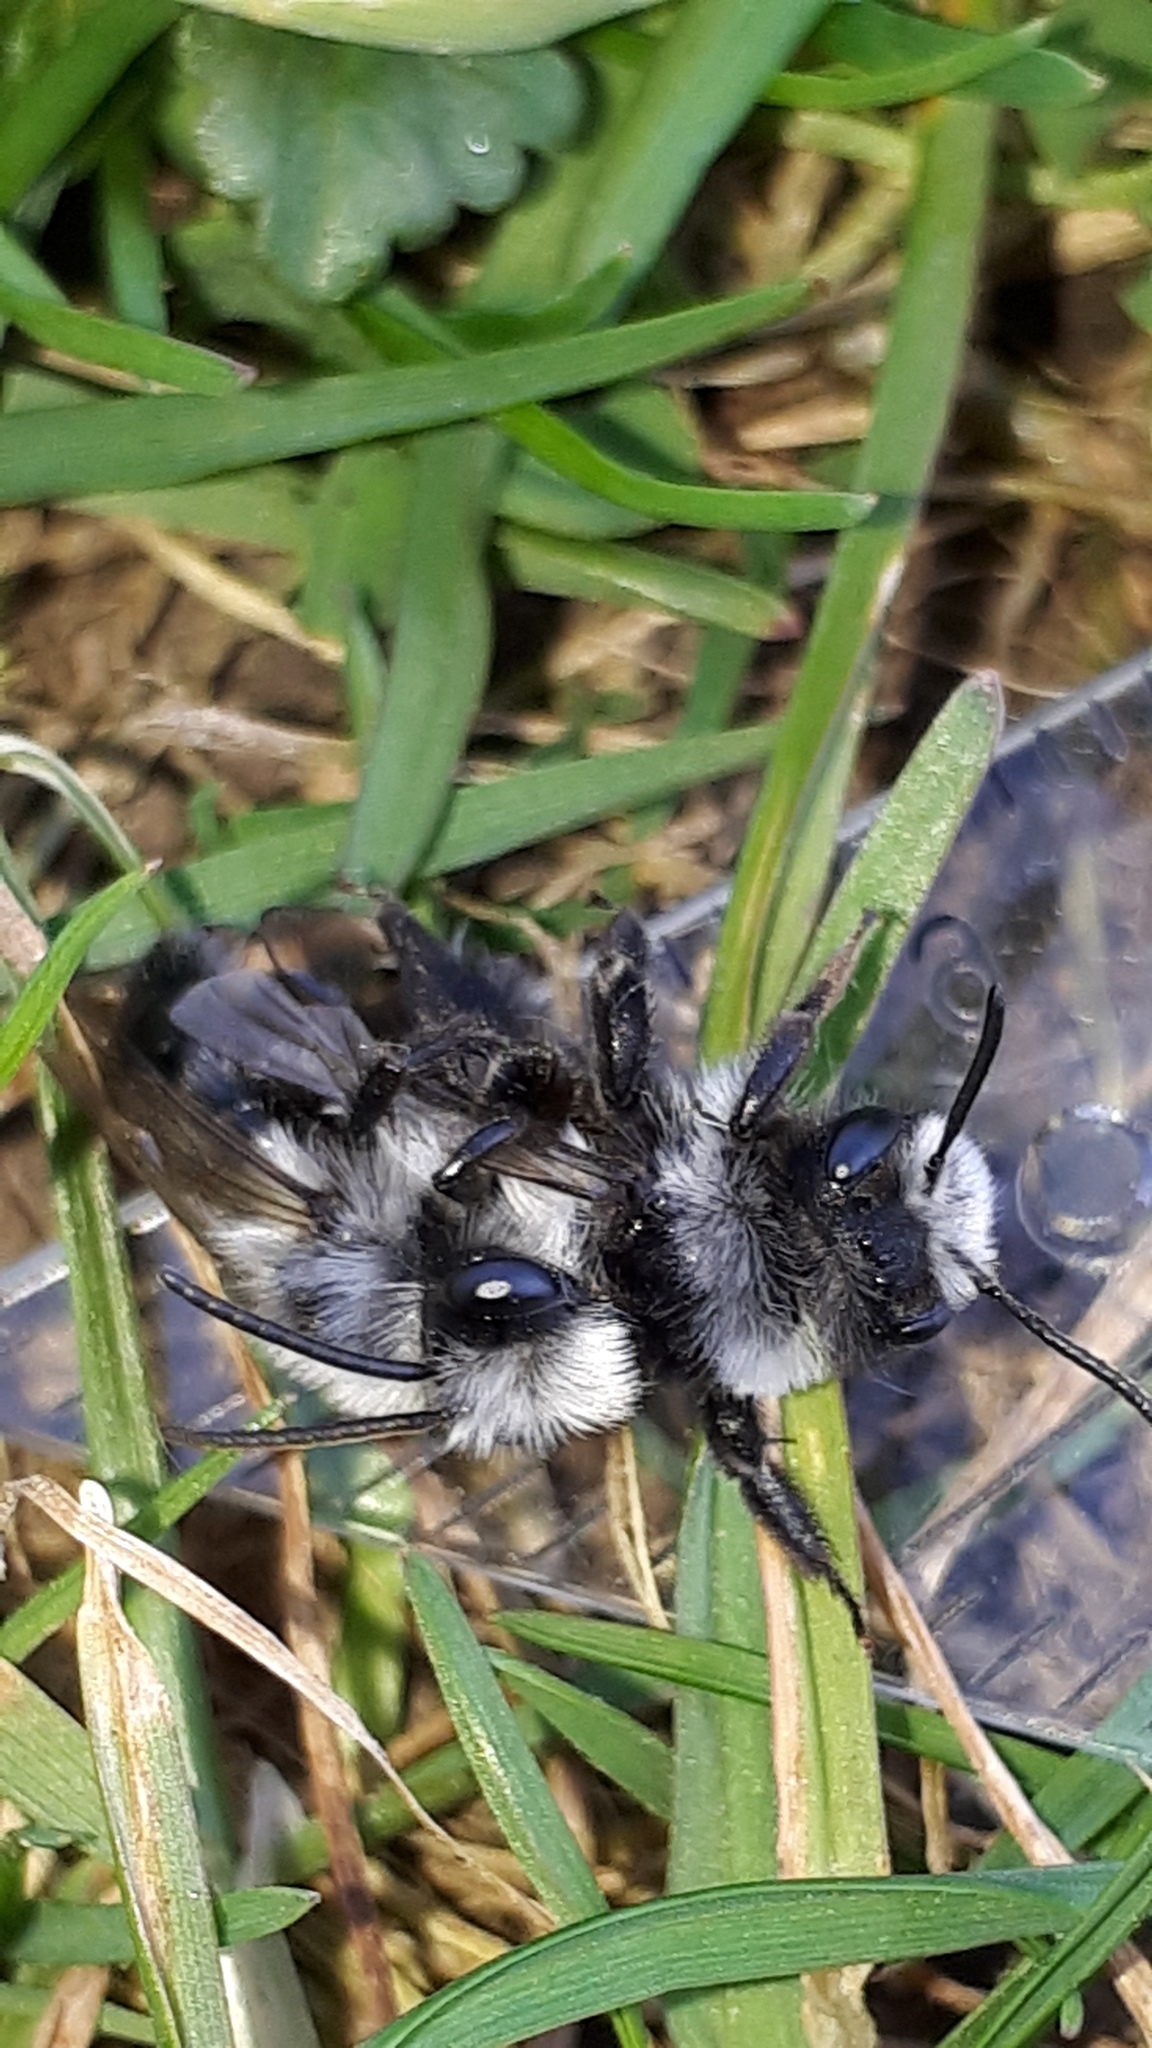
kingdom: Animalia
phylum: Arthropoda
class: Insecta
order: Hymenoptera
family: Andrenidae
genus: Andrena
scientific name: Andrena cineraria
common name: Ashy mining bee
